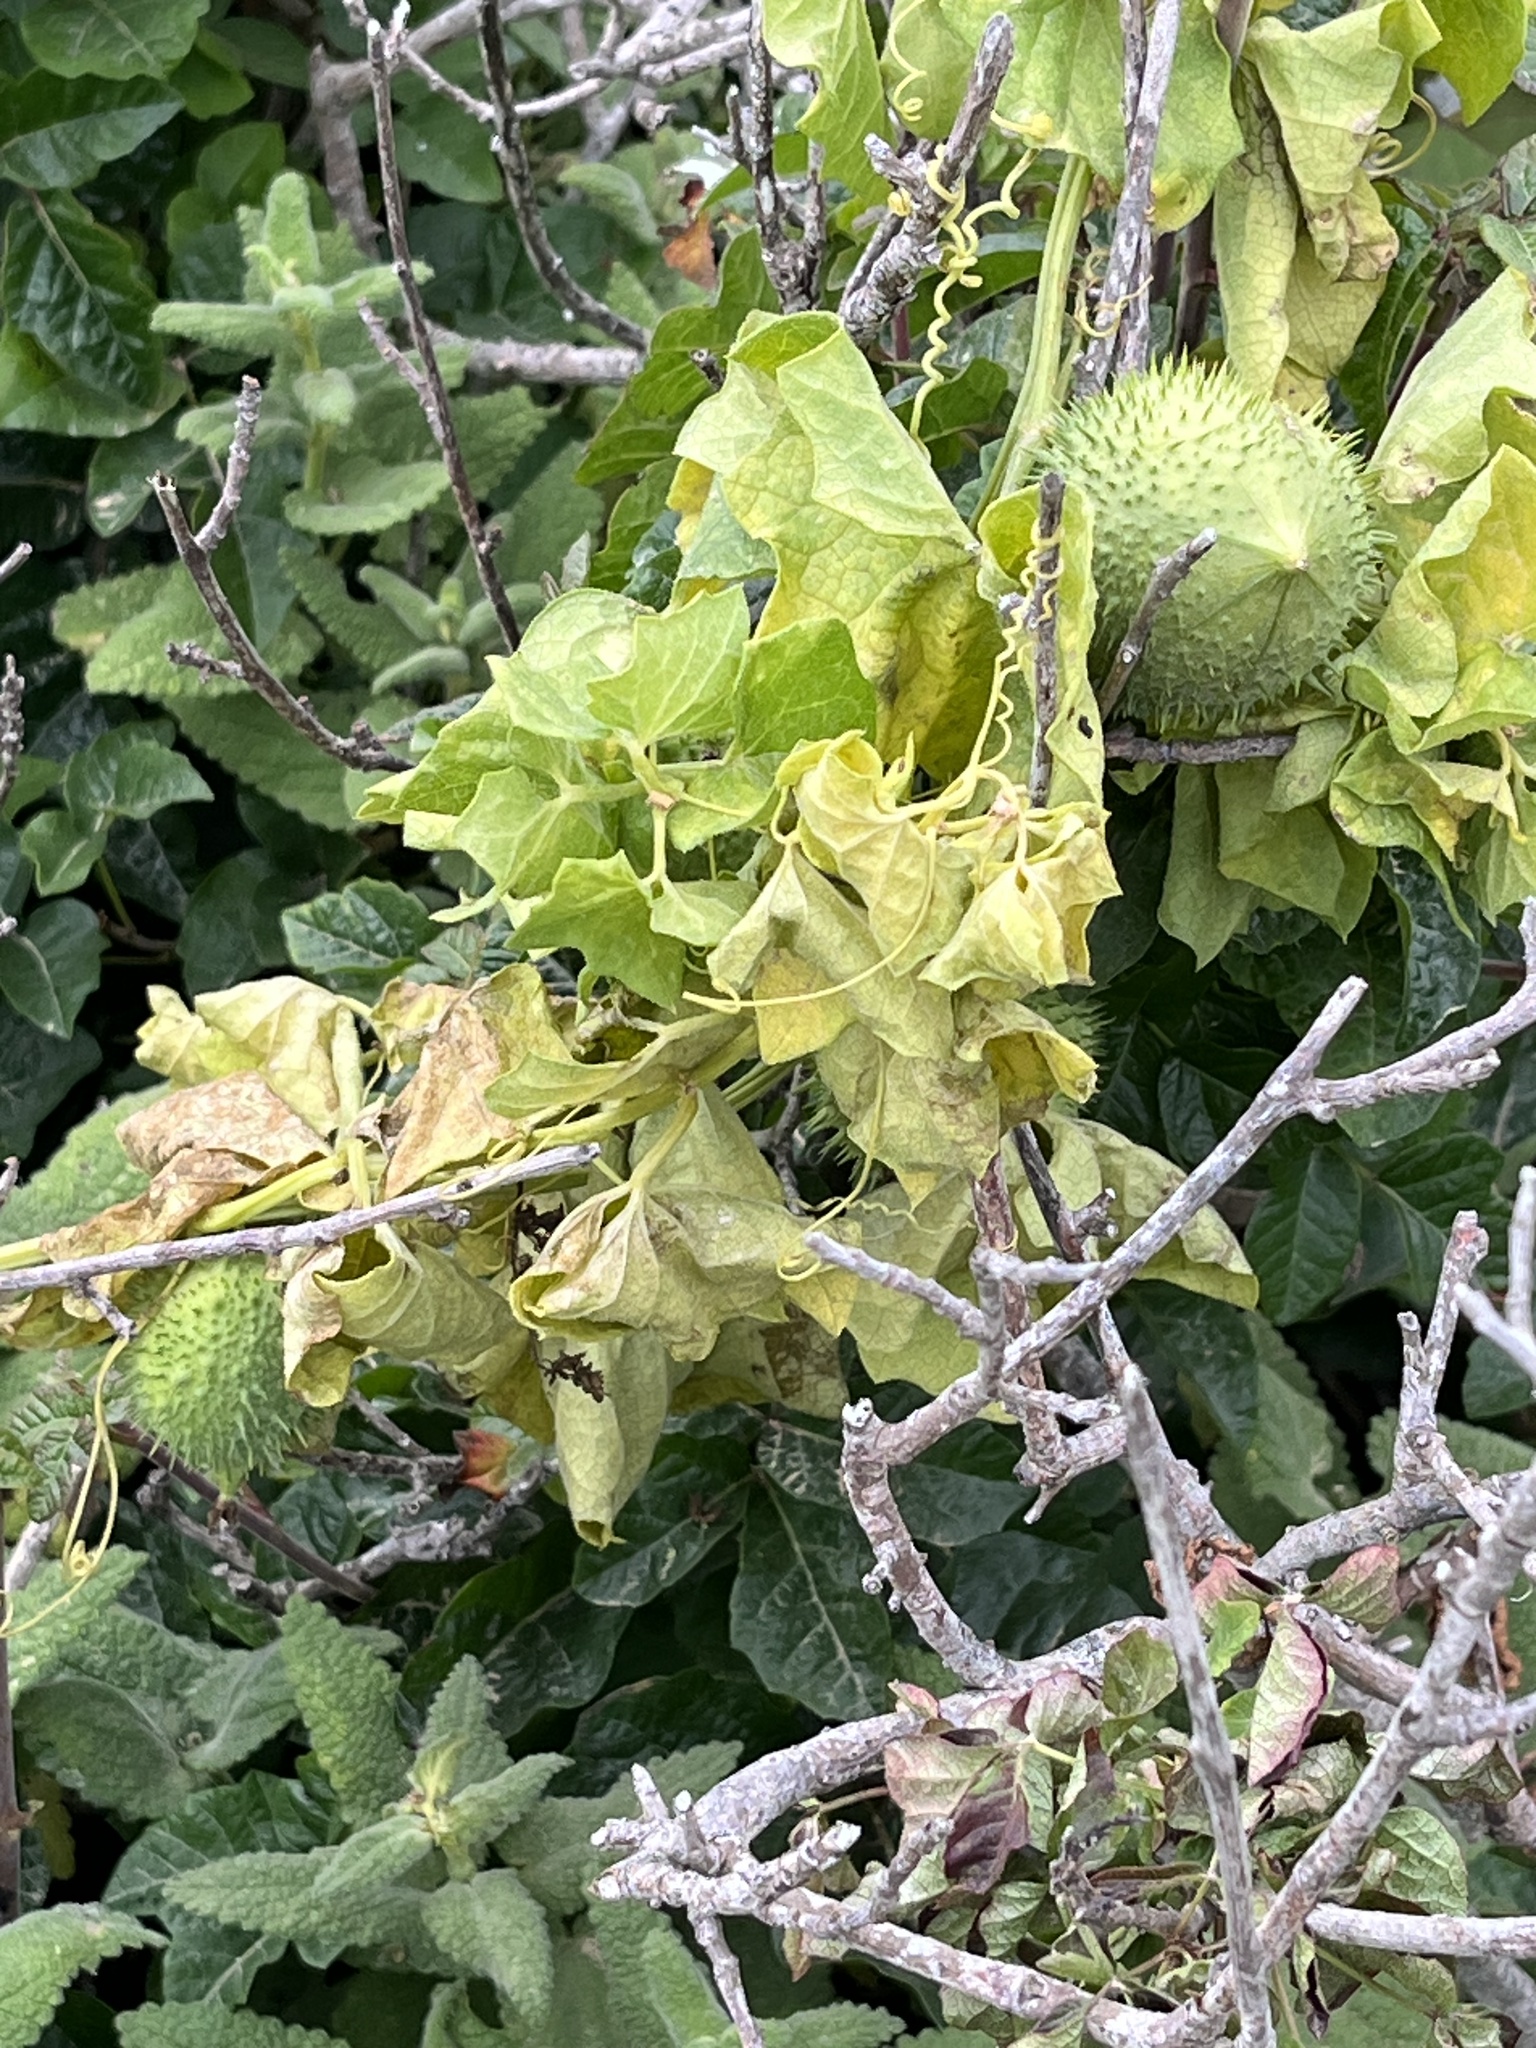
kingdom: Plantae
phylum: Tracheophyta
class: Magnoliopsida
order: Cucurbitales
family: Cucurbitaceae
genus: Marah
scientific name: Marah fabacea
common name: California manroot
